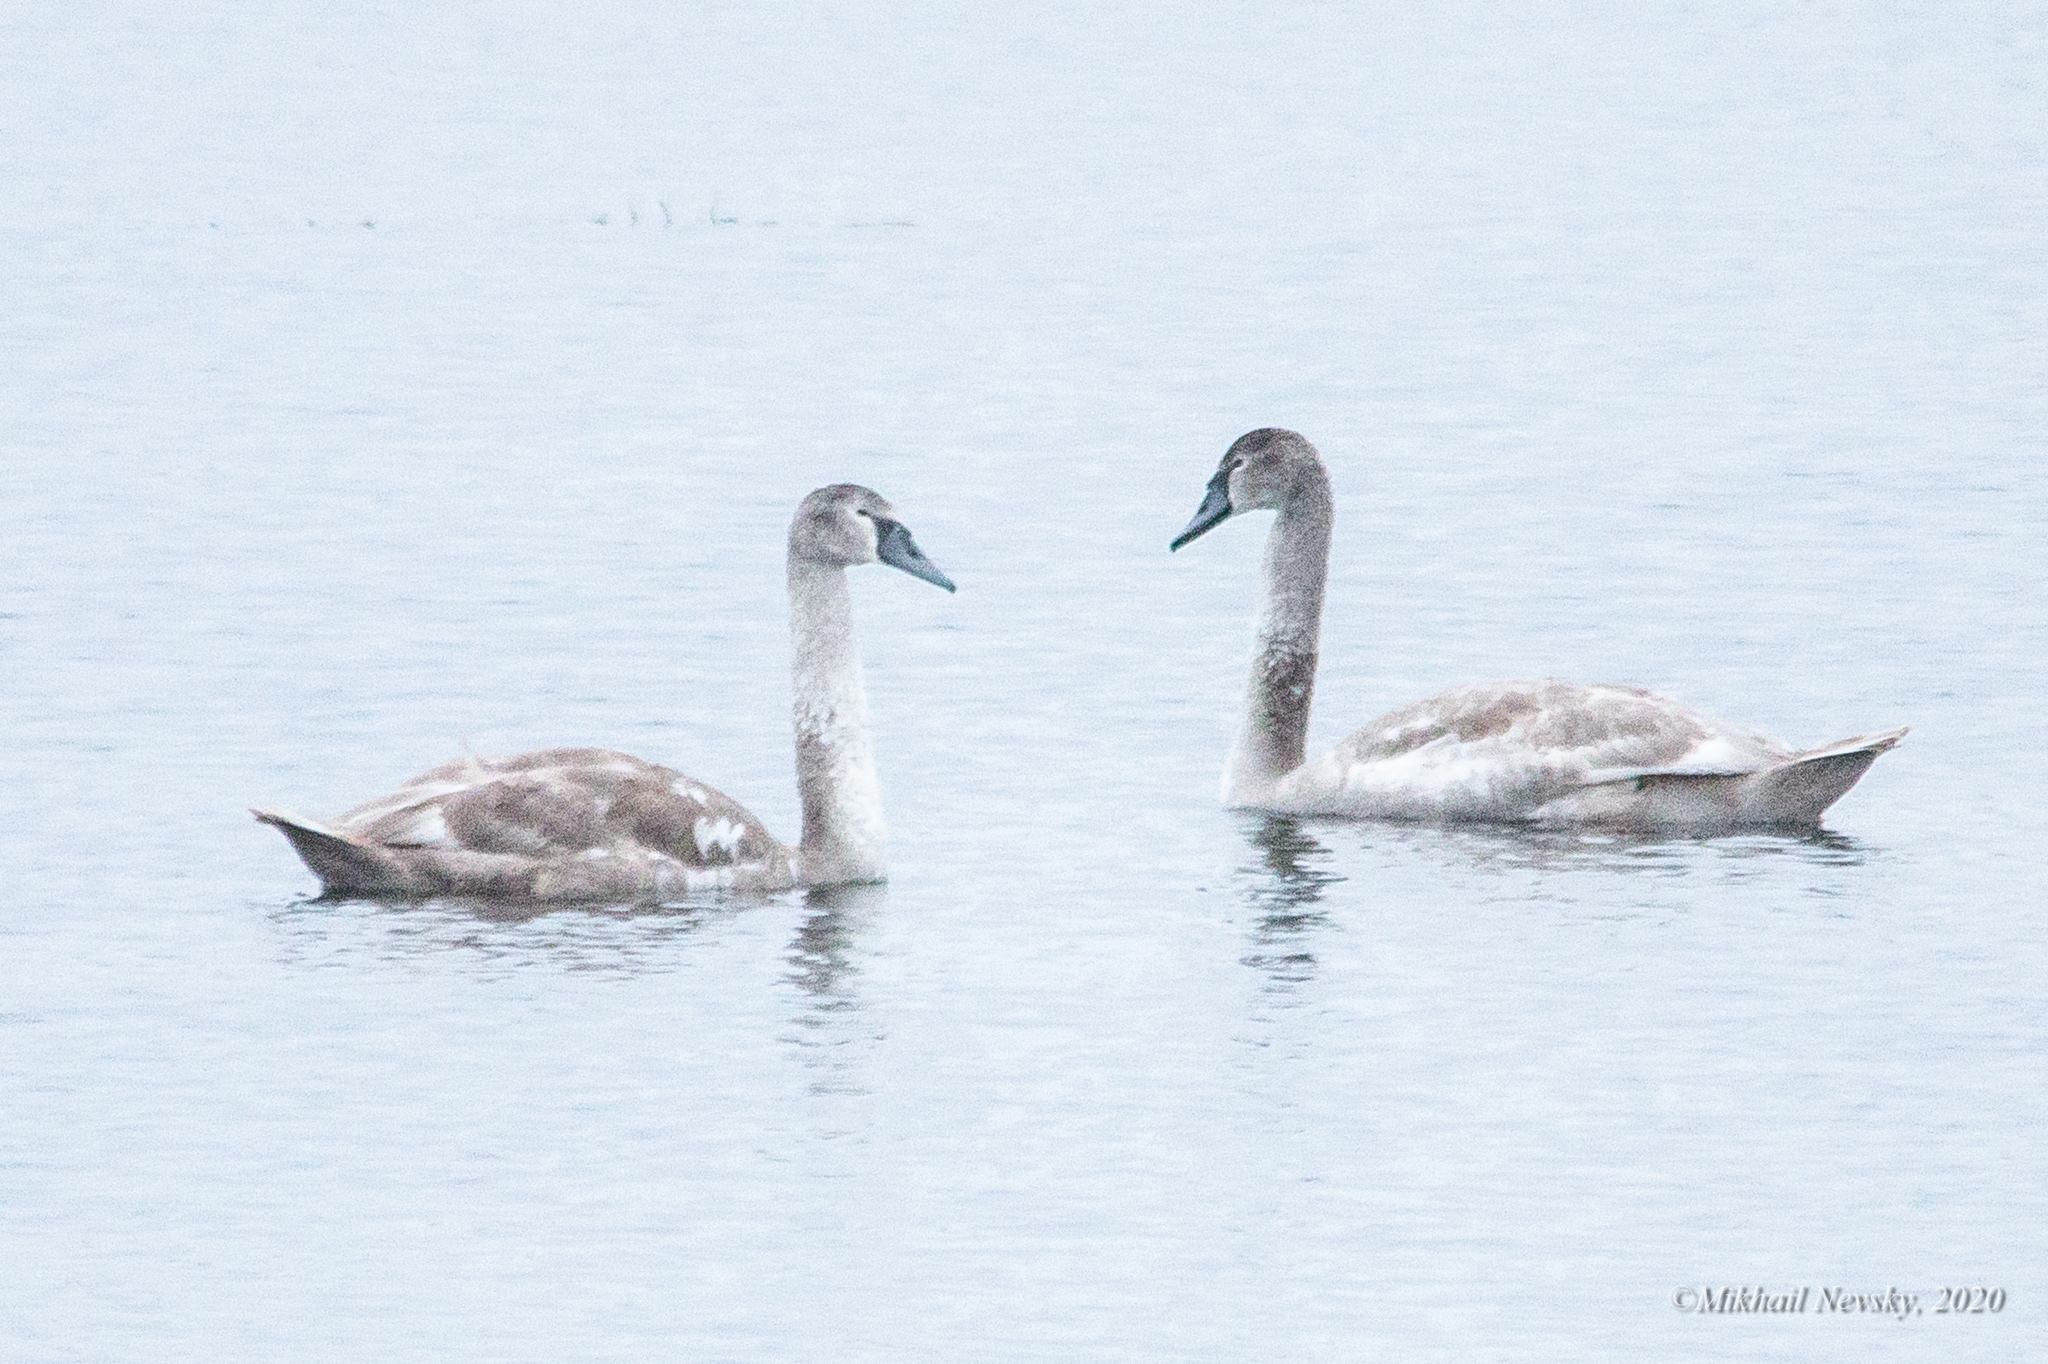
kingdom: Animalia
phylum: Chordata
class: Aves
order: Anseriformes
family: Anatidae
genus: Cygnus
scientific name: Cygnus olor
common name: Mute swan
